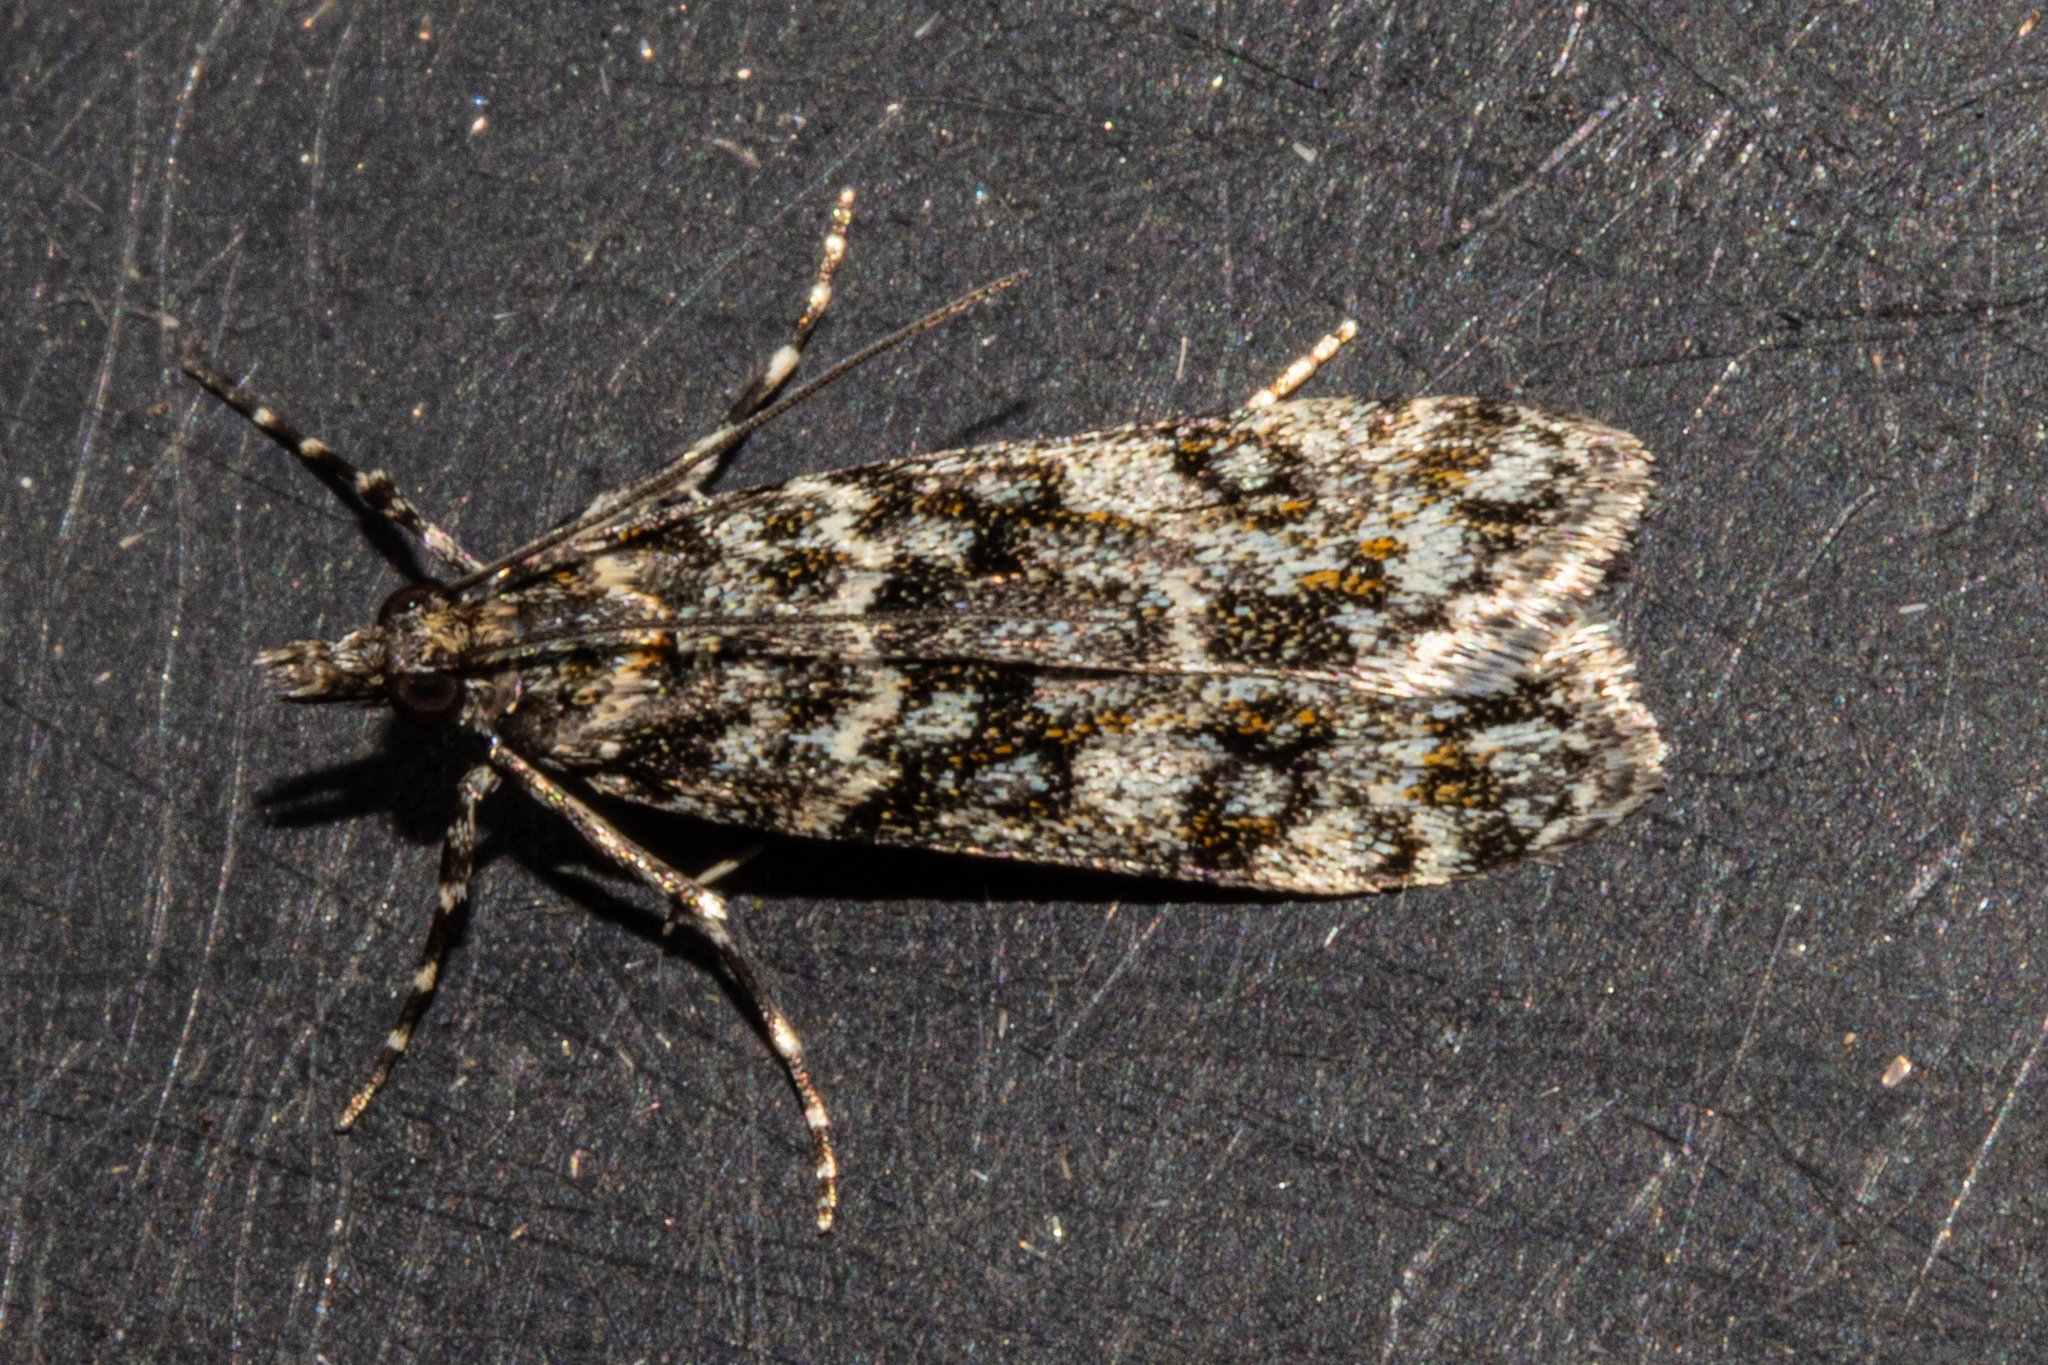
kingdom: Animalia
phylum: Arthropoda
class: Insecta
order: Lepidoptera
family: Crambidae
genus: Eudonia
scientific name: Eudonia
